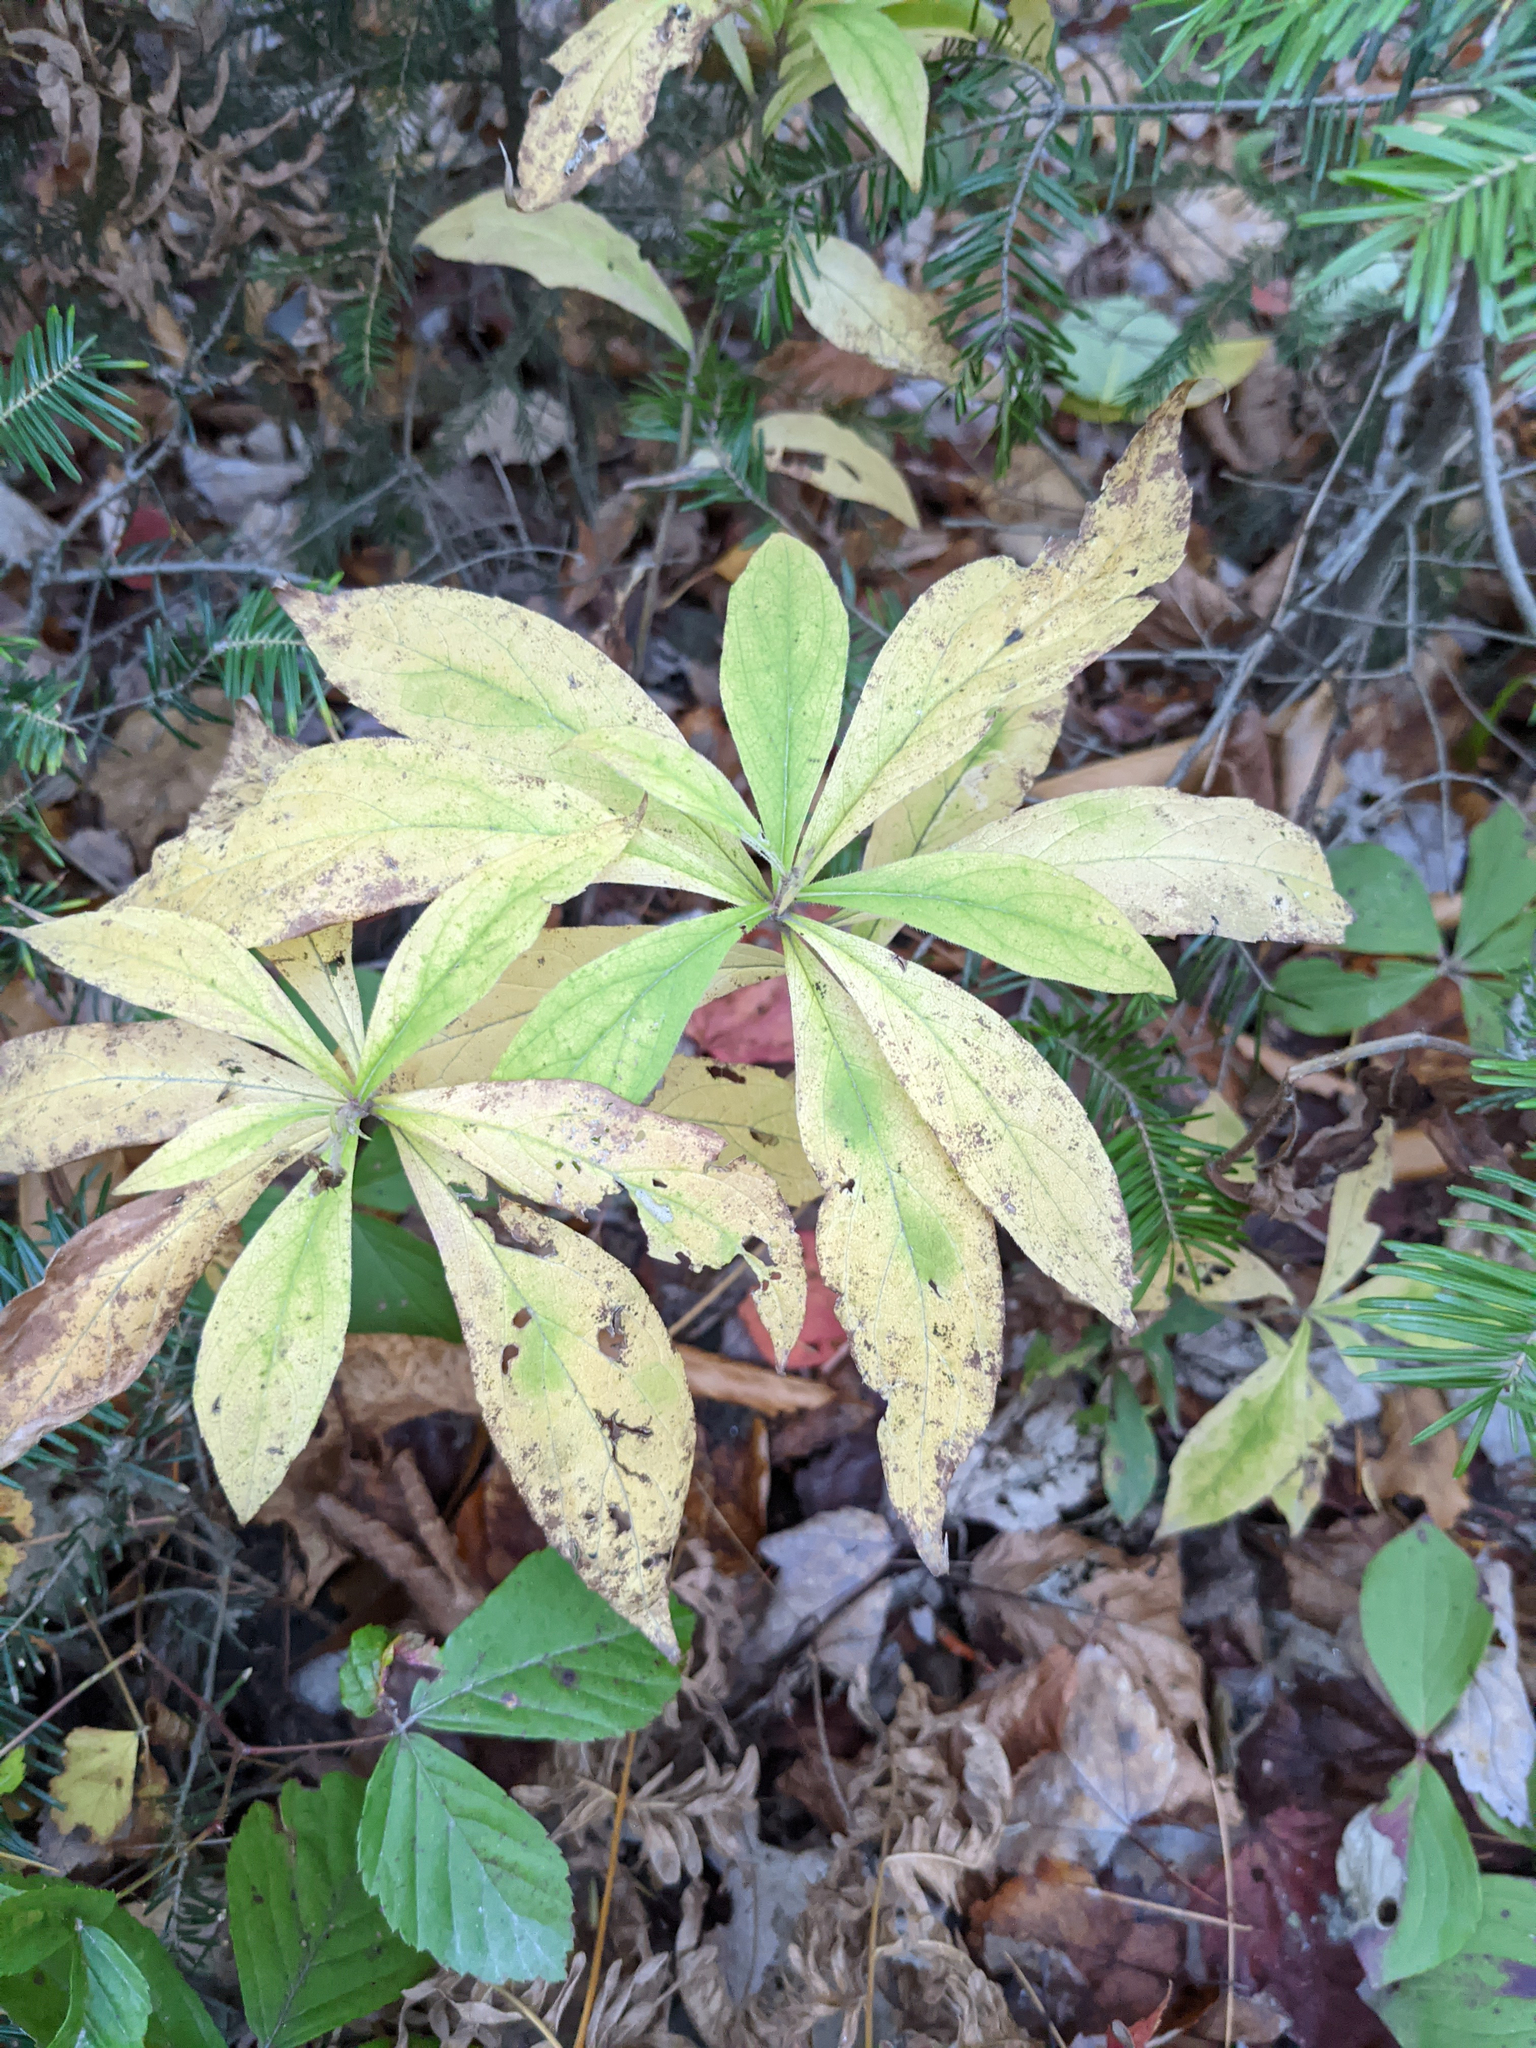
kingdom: Plantae
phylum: Tracheophyta
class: Magnoliopsida
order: Asterales
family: Asteraceae
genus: Oclemena
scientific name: Oclemena acuminata
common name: Mountain aster
